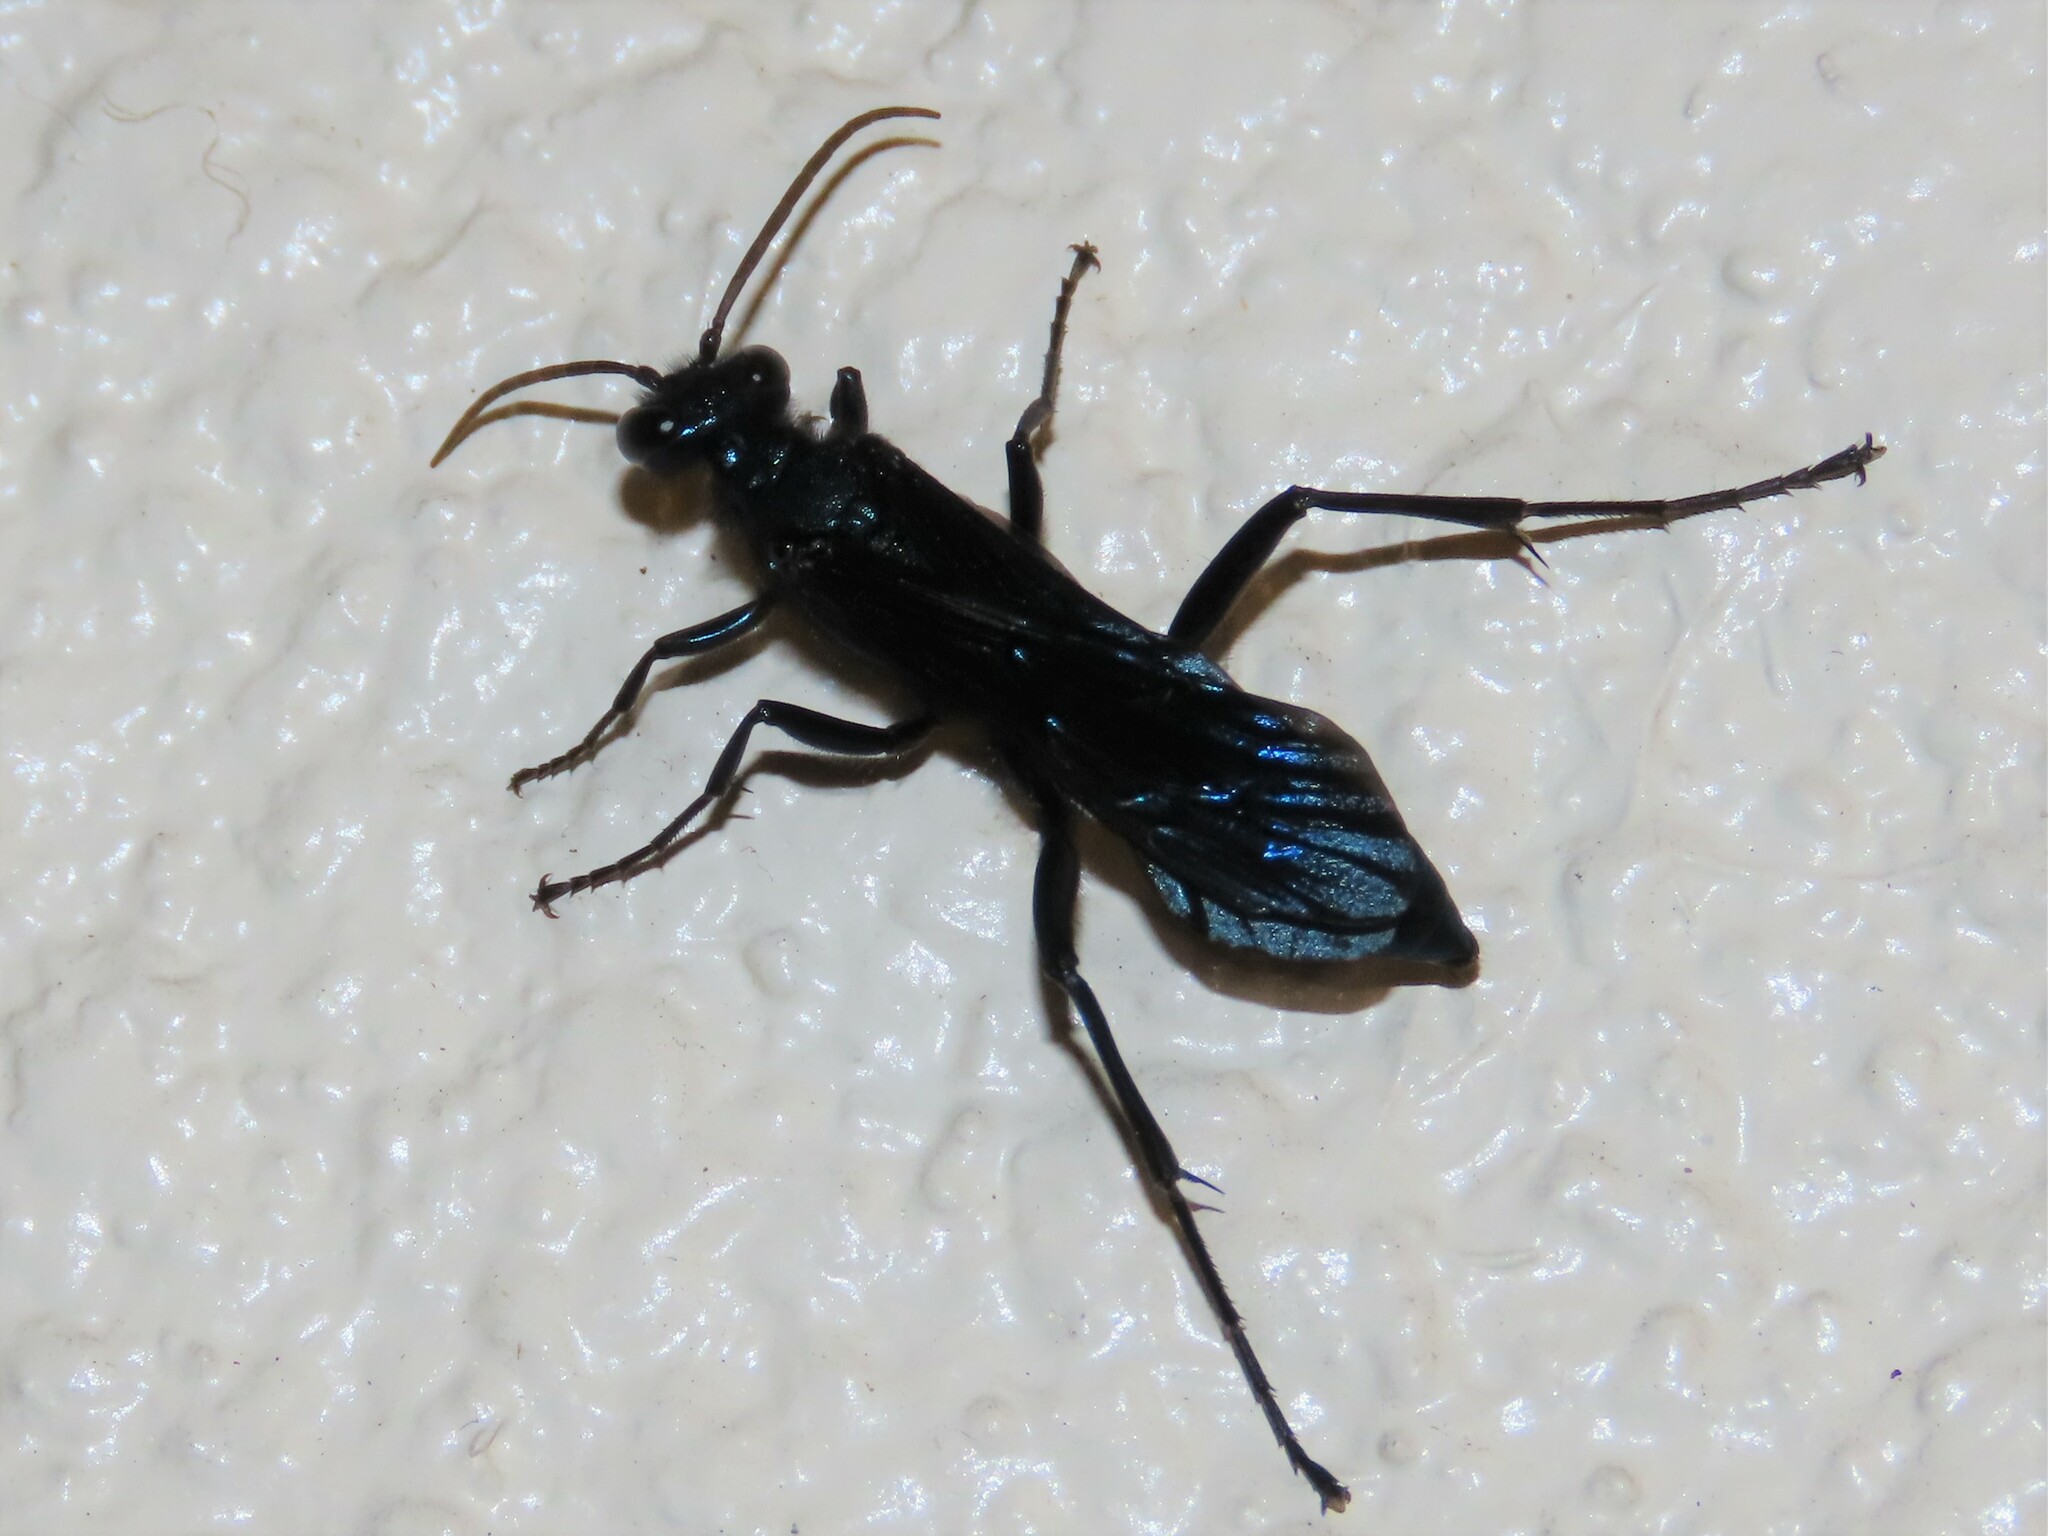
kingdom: Animalia
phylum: Arthropoda
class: Insecta
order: Hymenoptera
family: Sphecidae
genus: Chalybion
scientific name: Chalybion californicum
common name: Mud dauber
